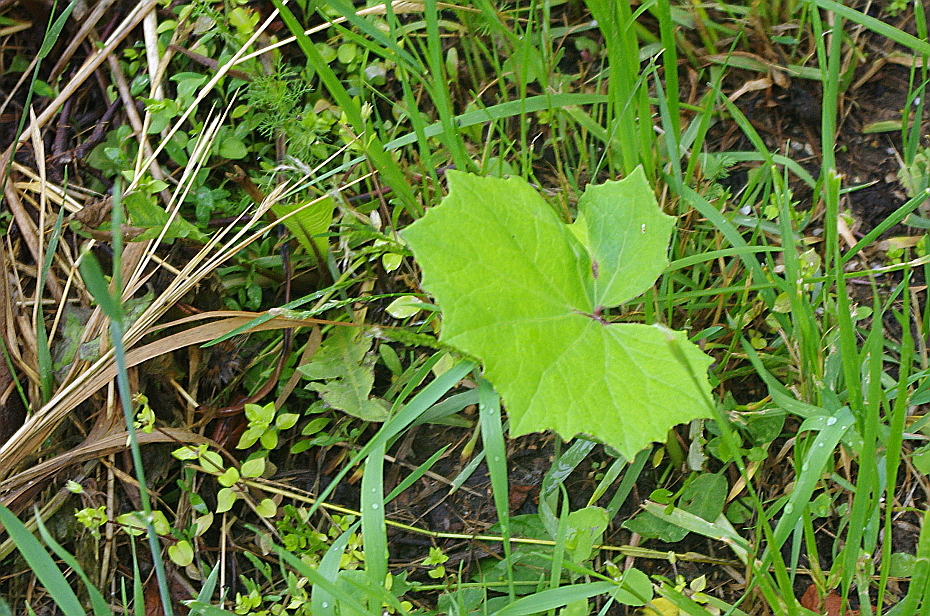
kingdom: Plantae
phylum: Tracheophyta
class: Magnoliopsida
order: Asterales
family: Asteraceae
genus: Tussilago
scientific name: Tussilago farfara
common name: Coltsfoot
